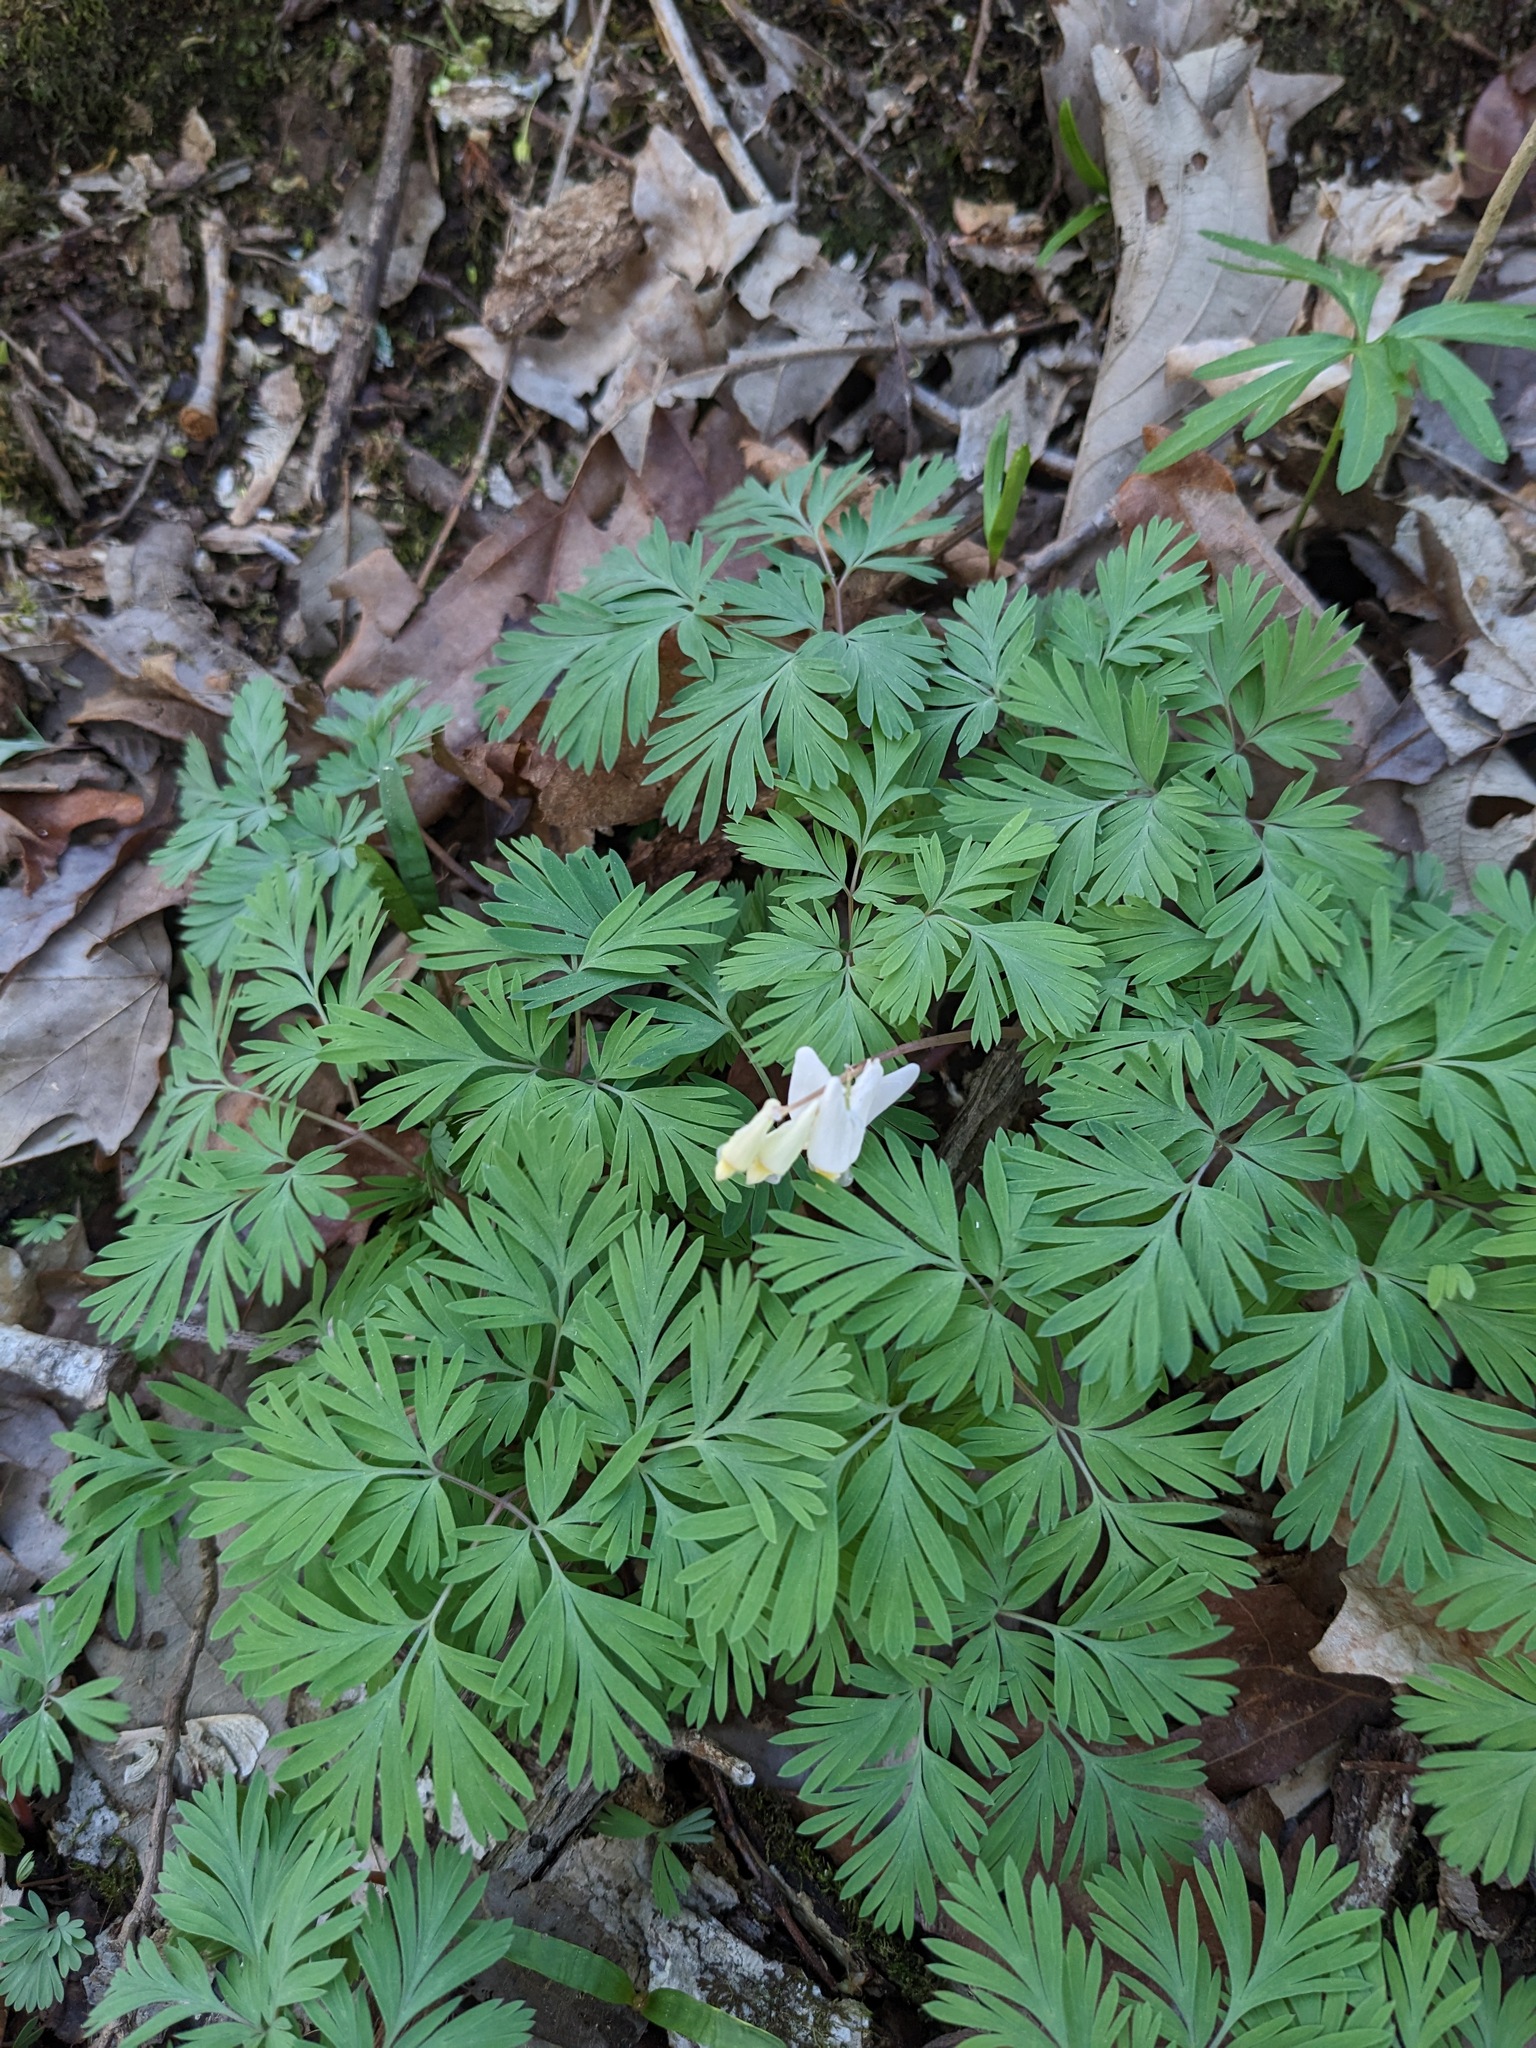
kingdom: Plantae
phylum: Tracheophyta
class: Magnoliopsida
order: Ranunculales
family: Papaveraceae
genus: Dicentra
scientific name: Dicentra cucullaria
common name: Dutchman's breeches
